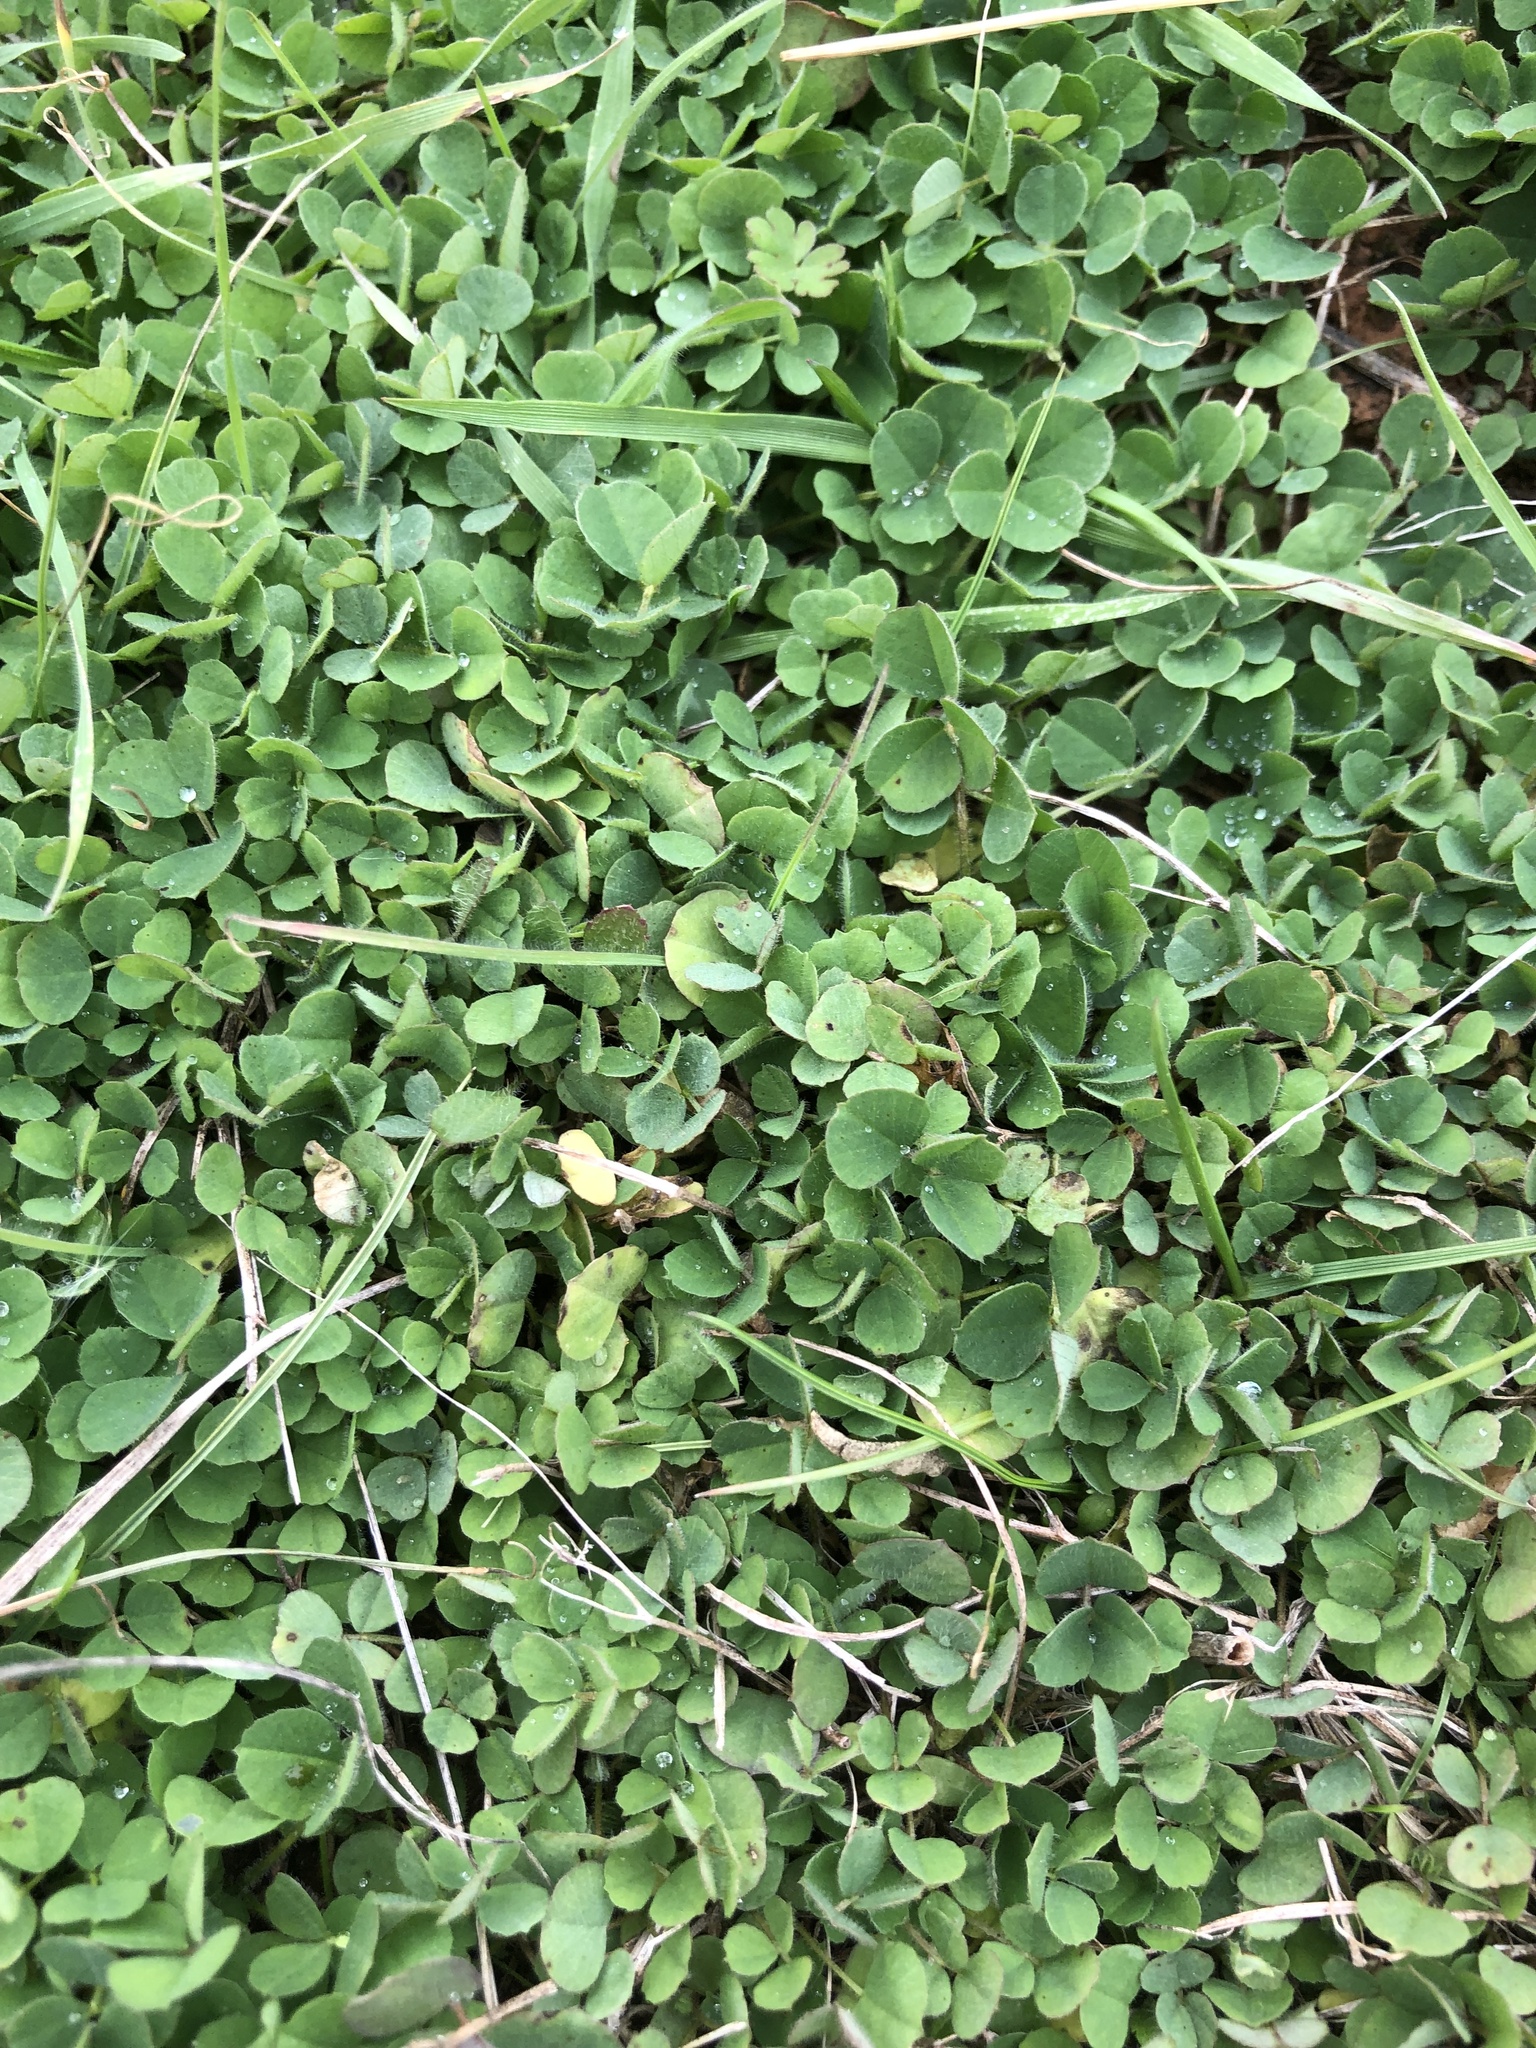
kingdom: Plantae
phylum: Tracheophyta
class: Magnoliopsida
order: Fabales
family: Fabaceae
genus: Medicago
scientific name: Medicago lupulina
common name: Black medick
